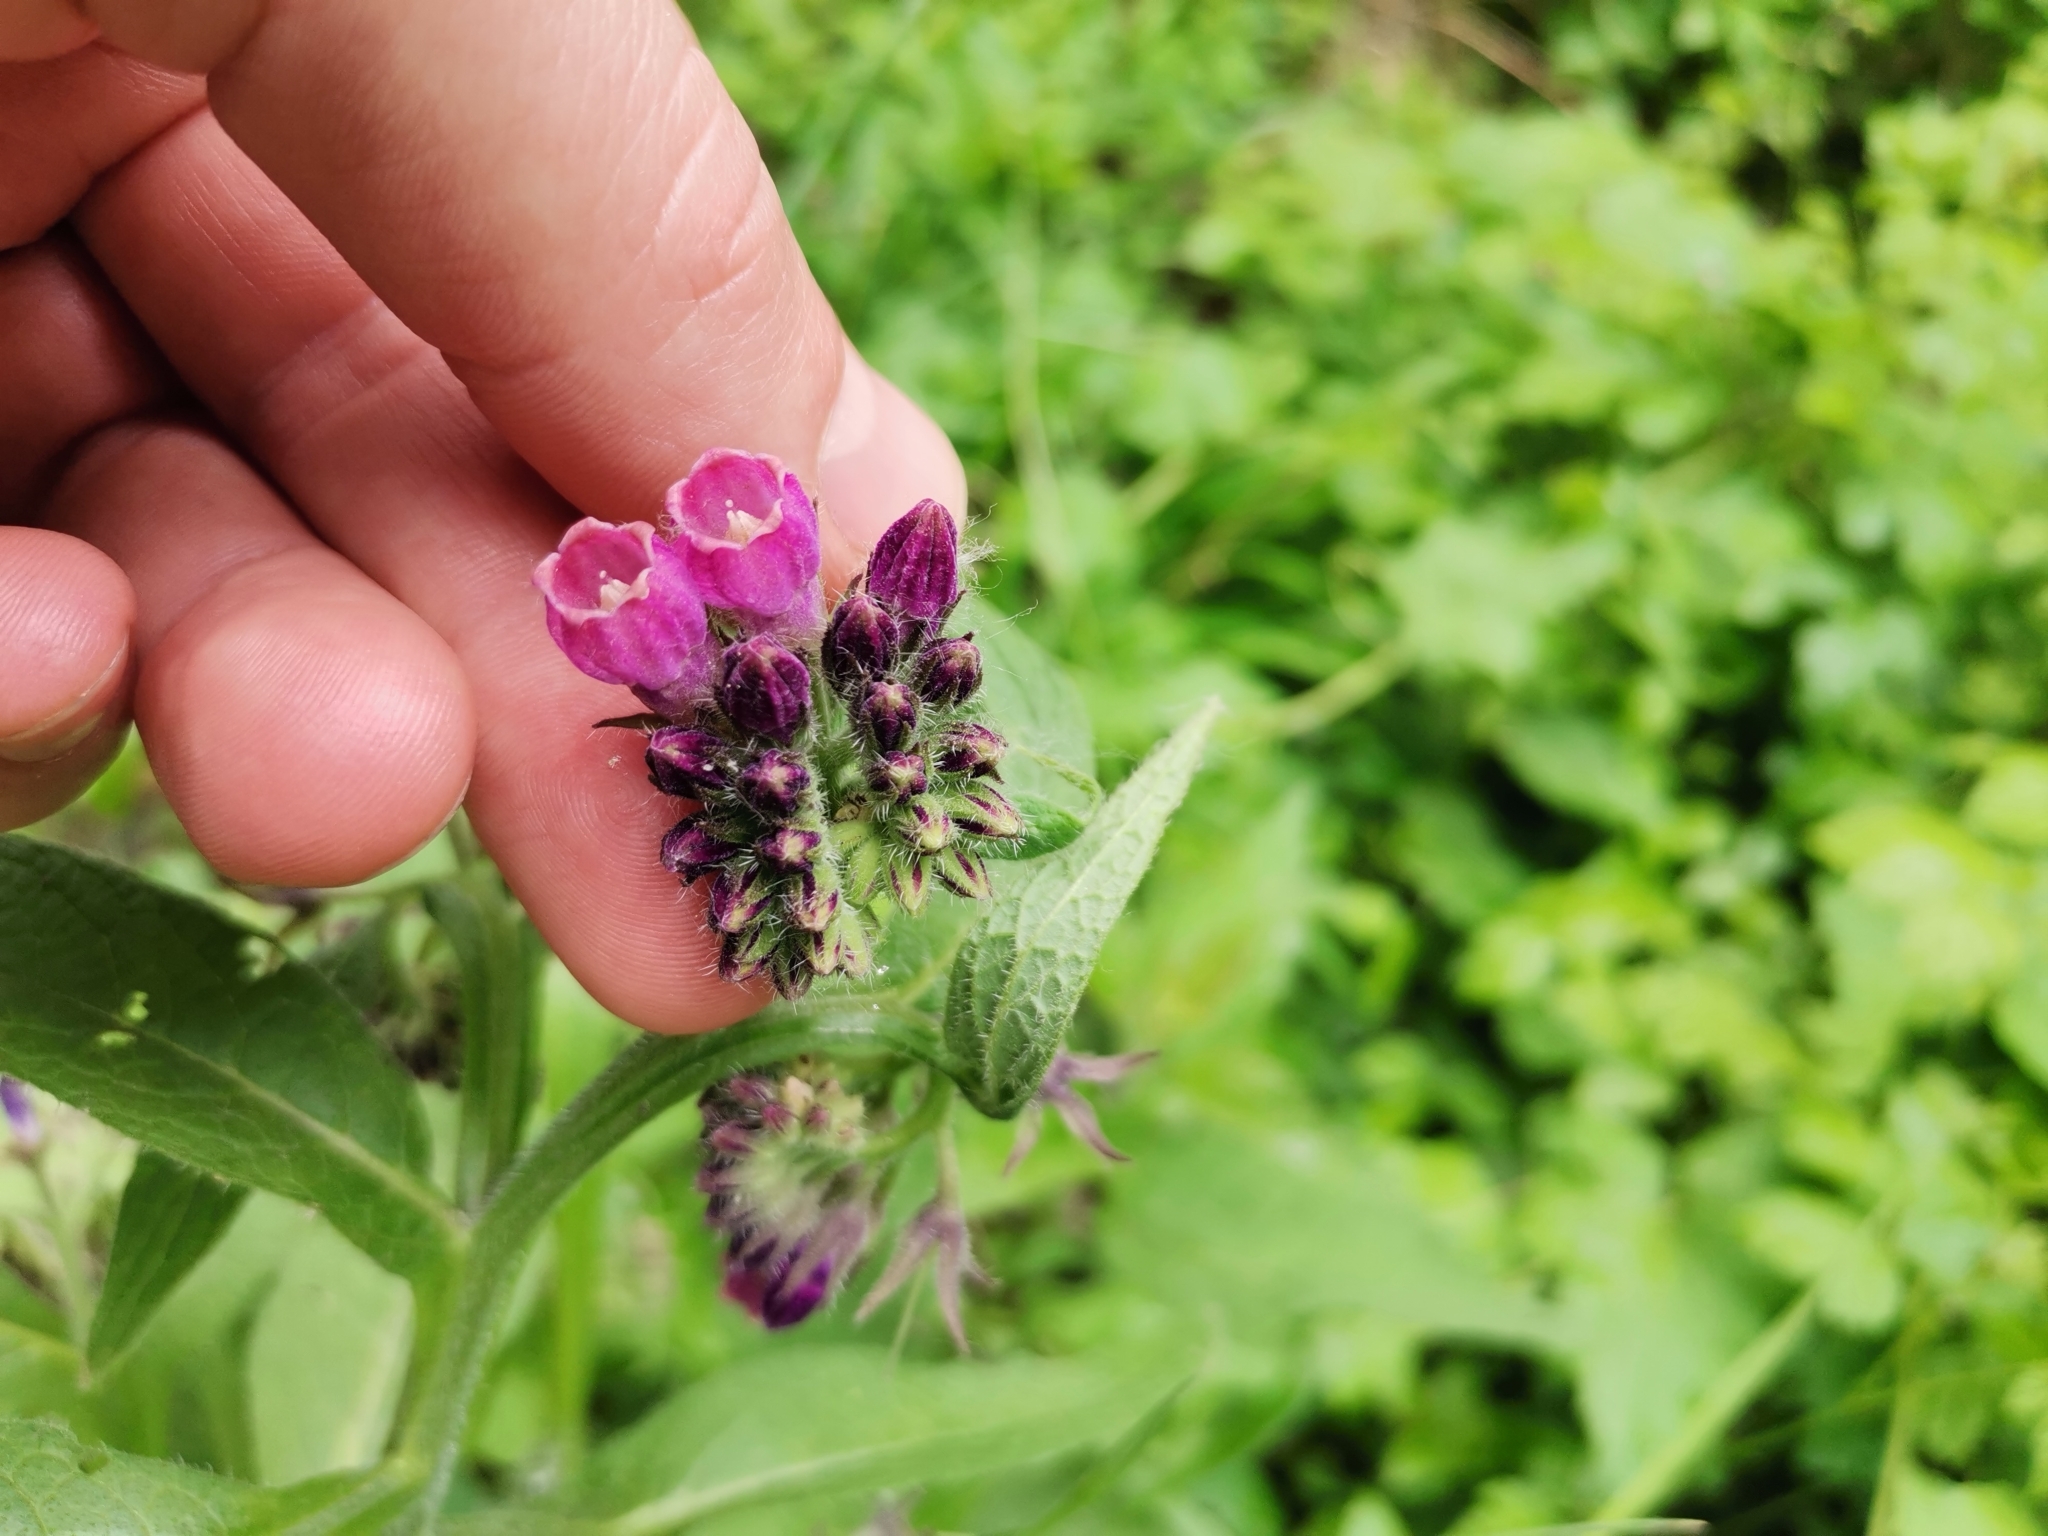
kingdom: Plantae
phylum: Tracheophyta
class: Magnoliopsida
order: Boraginales
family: Boraginaceae
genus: Symphytum
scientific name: Symphytum officinale
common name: Common comfrey
